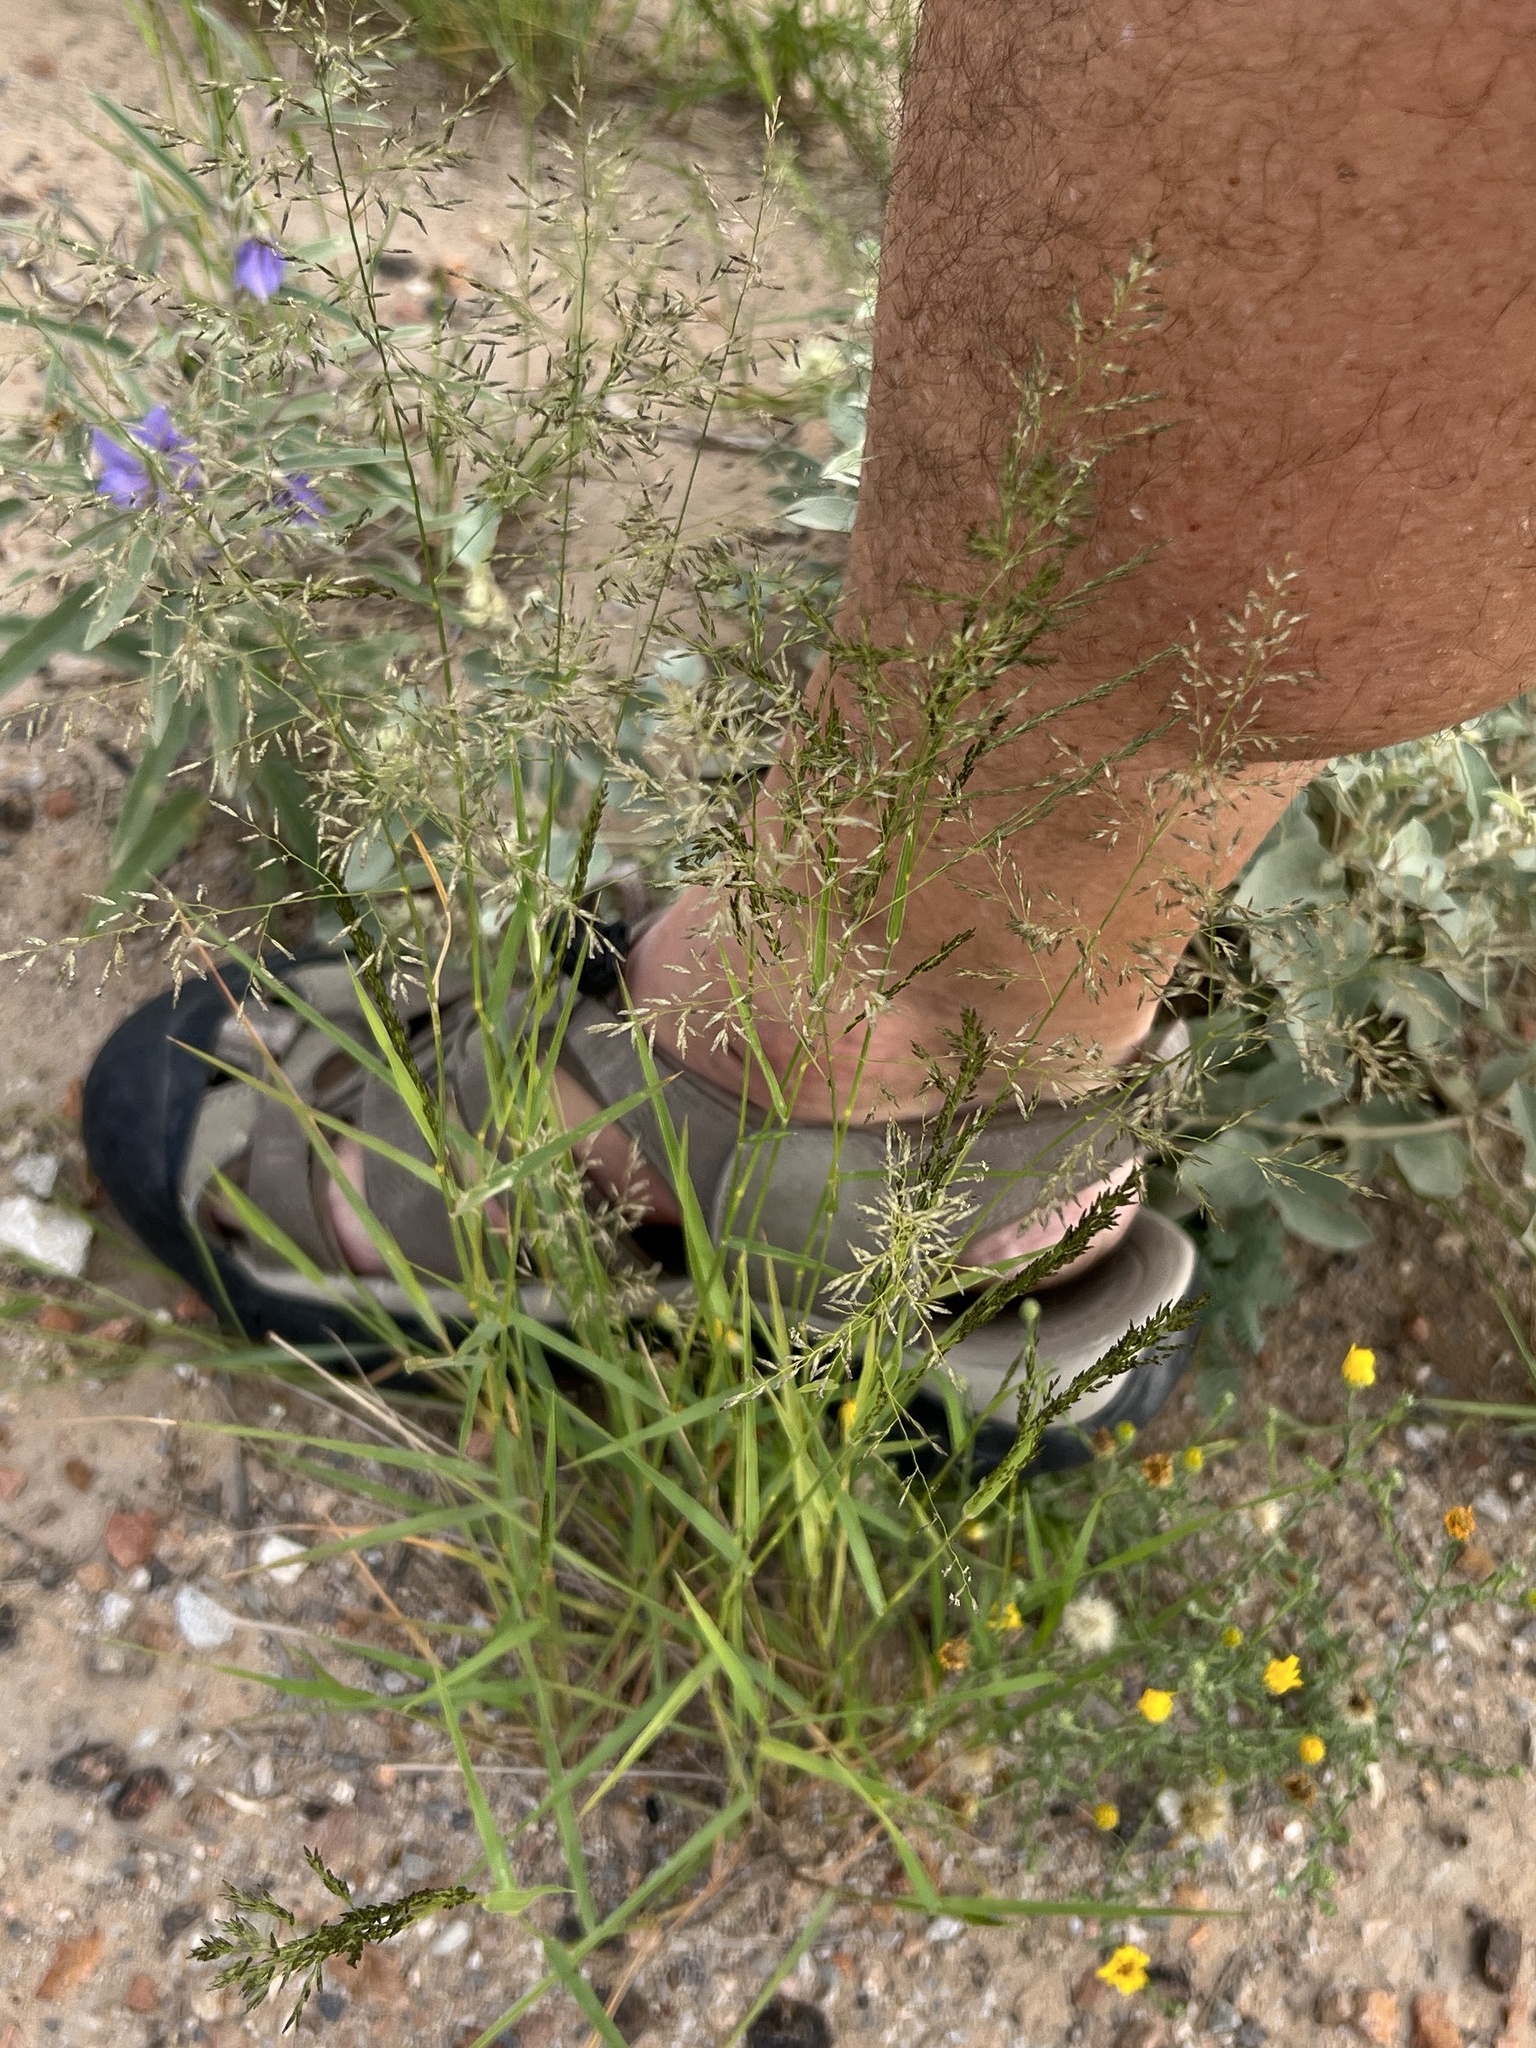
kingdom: Plantae
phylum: Tracheophyta
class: Liliopsida
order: Poales
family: Poaceae
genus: Eragrostis
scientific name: Eragrostis lehmanniana
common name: Lehmann lovegrass
